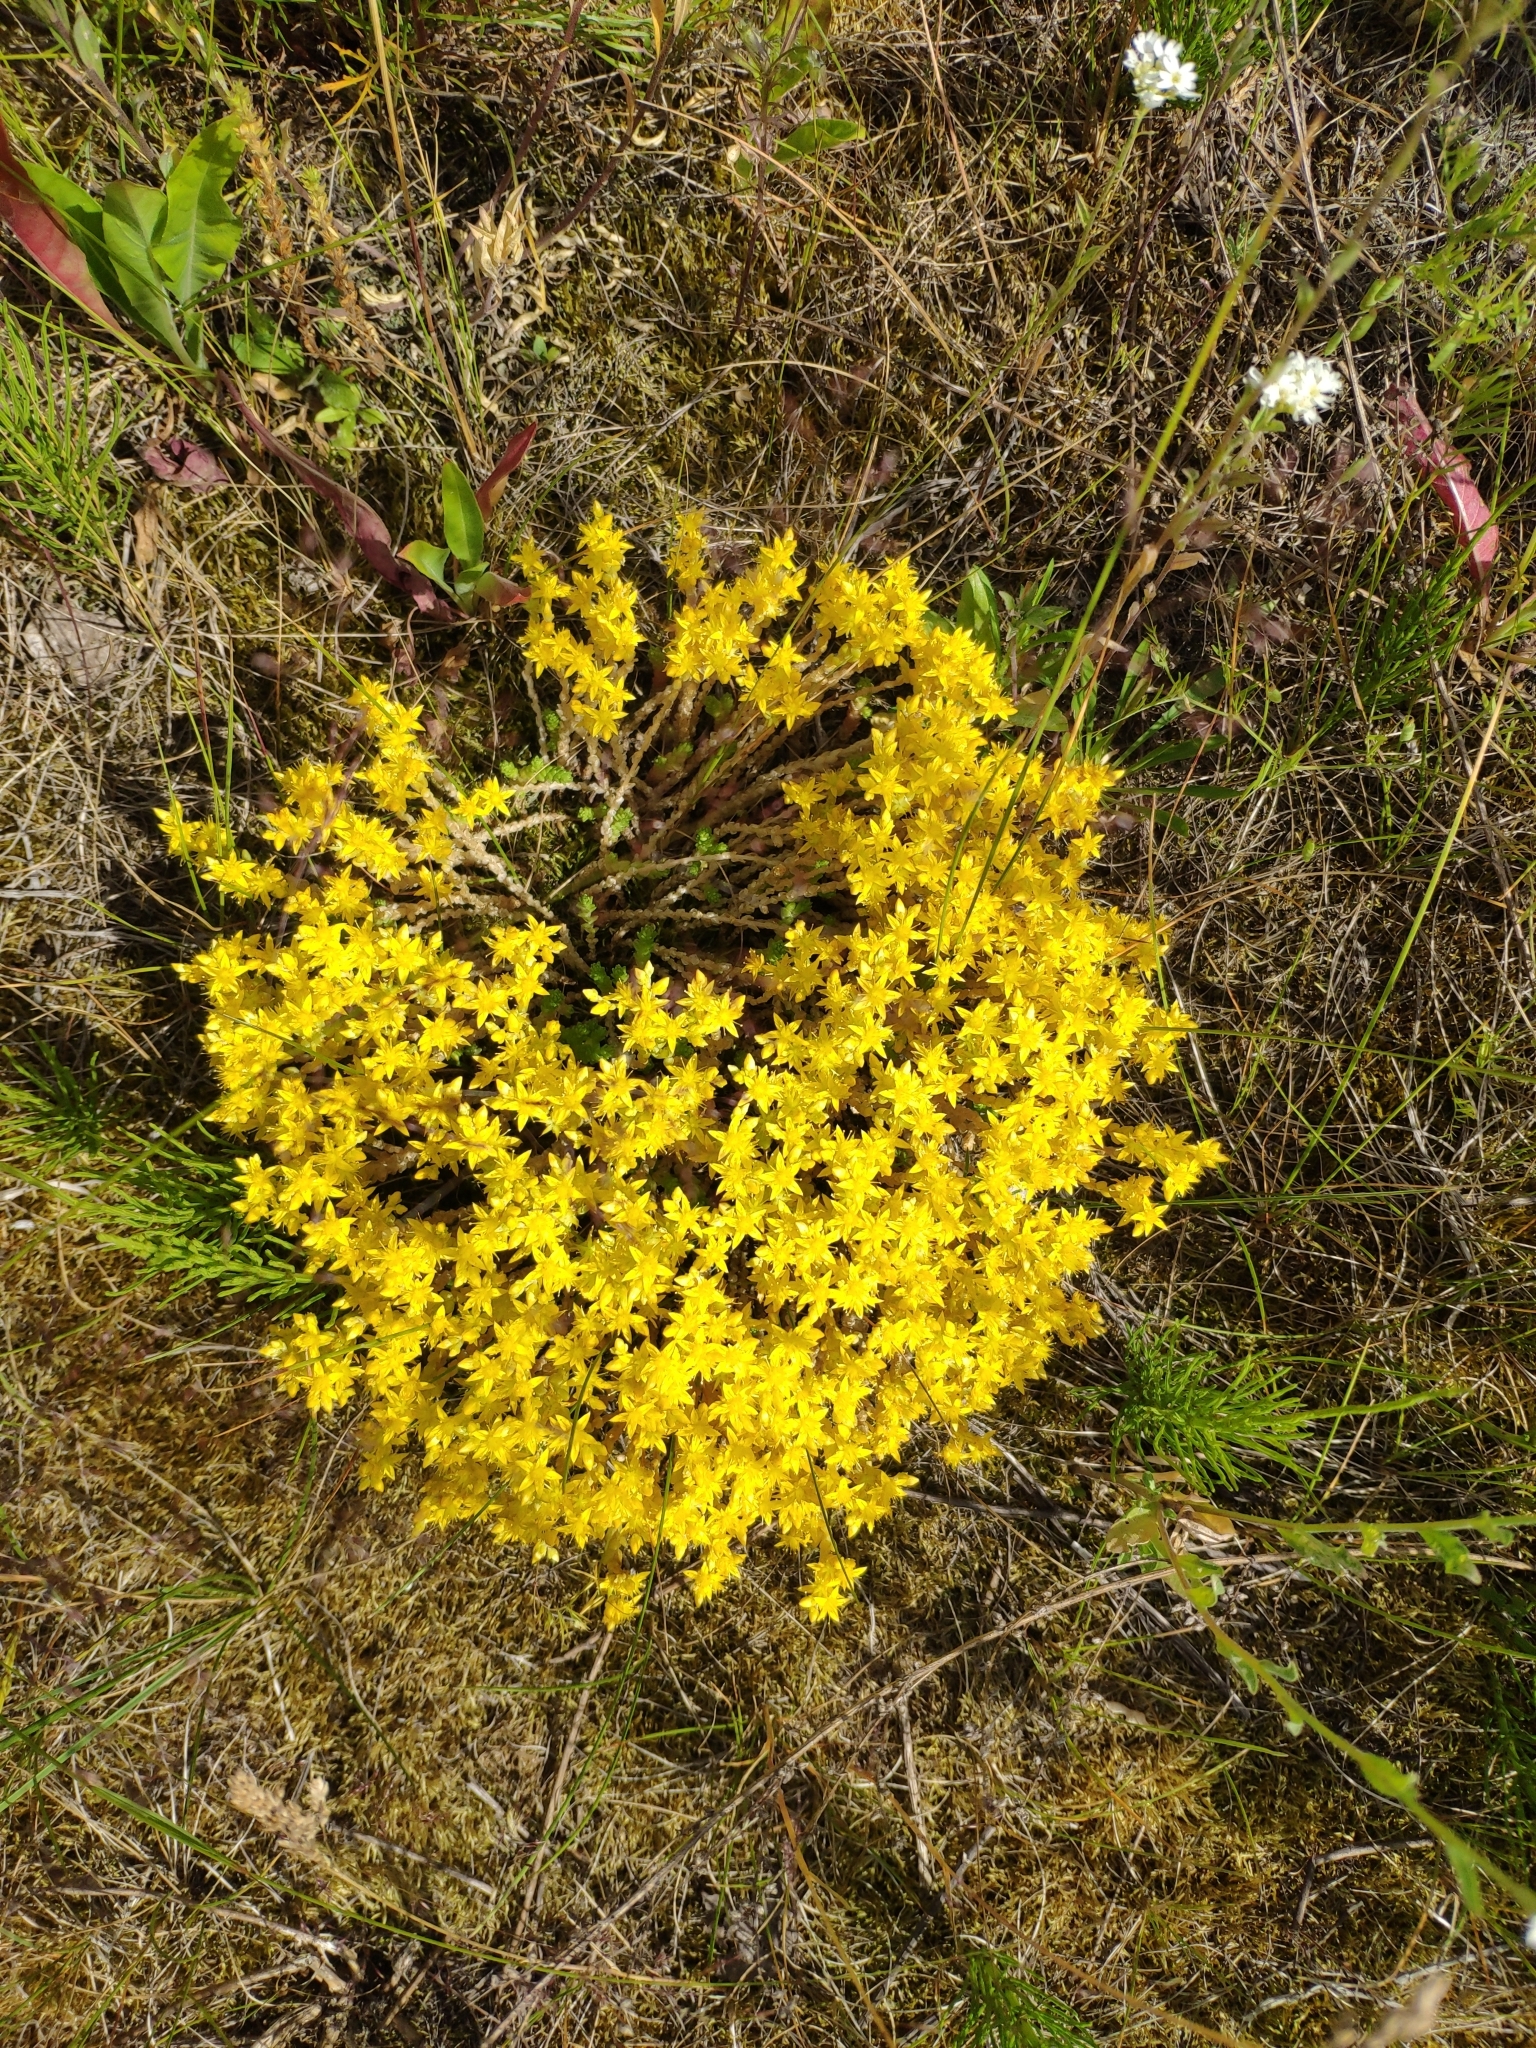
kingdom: Plantae
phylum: Tracheophyta
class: Magnoliopsida
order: Saxifragales
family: Crassulaceae
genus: Sedum
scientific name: Sedum acre
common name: Biting stonecrop
